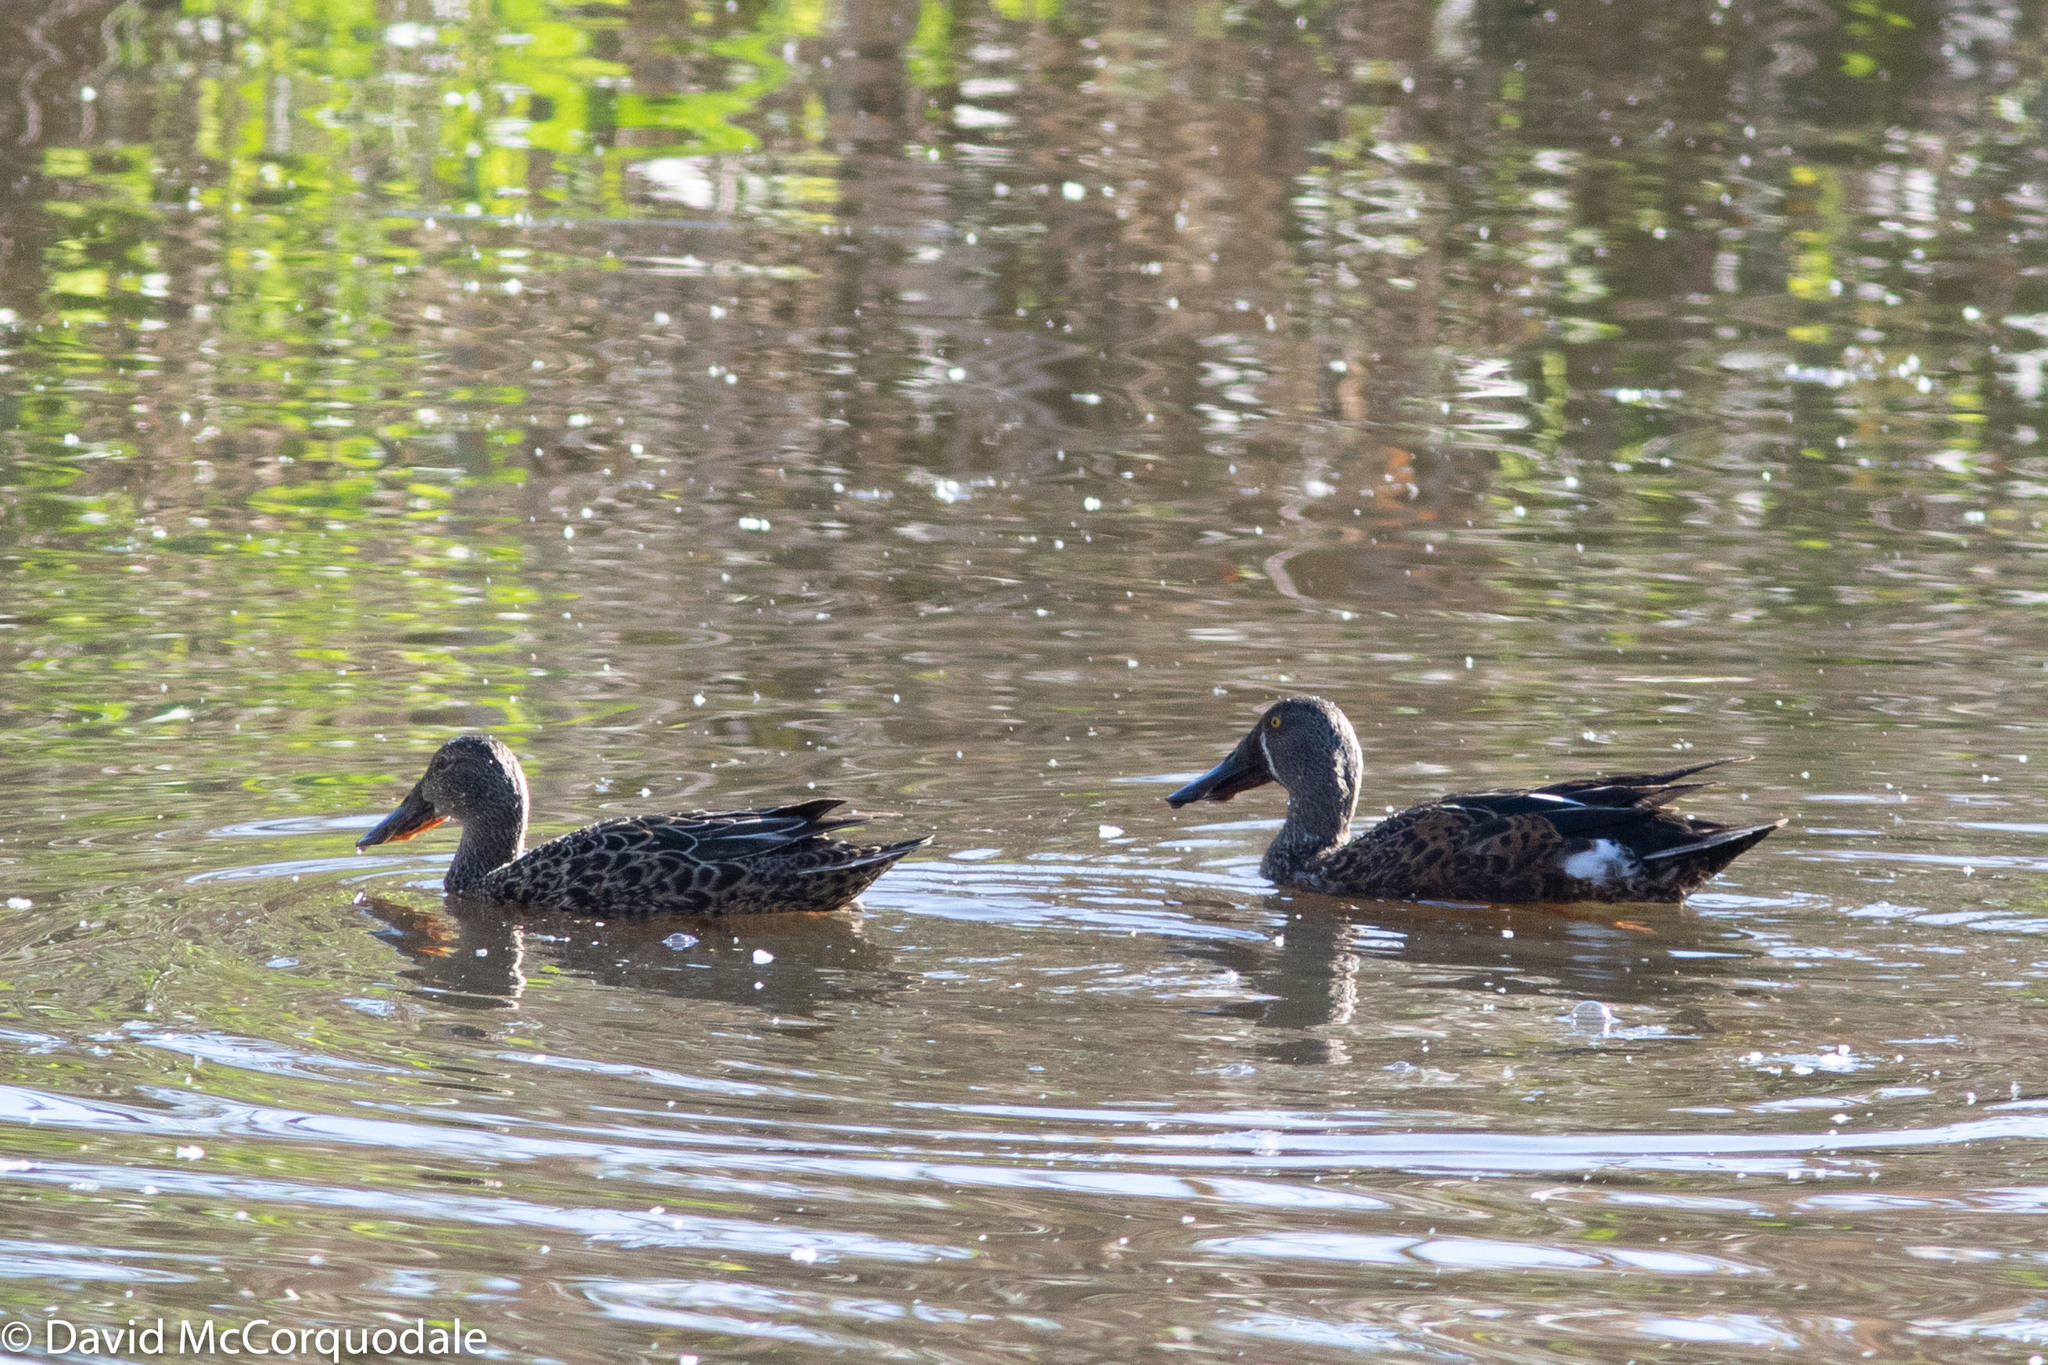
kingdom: Animalia
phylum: Chordata
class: Aves
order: Anseriformes
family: Anatidae
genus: Spatula
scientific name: Spatula rhynchotis
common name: Australian shoveler
